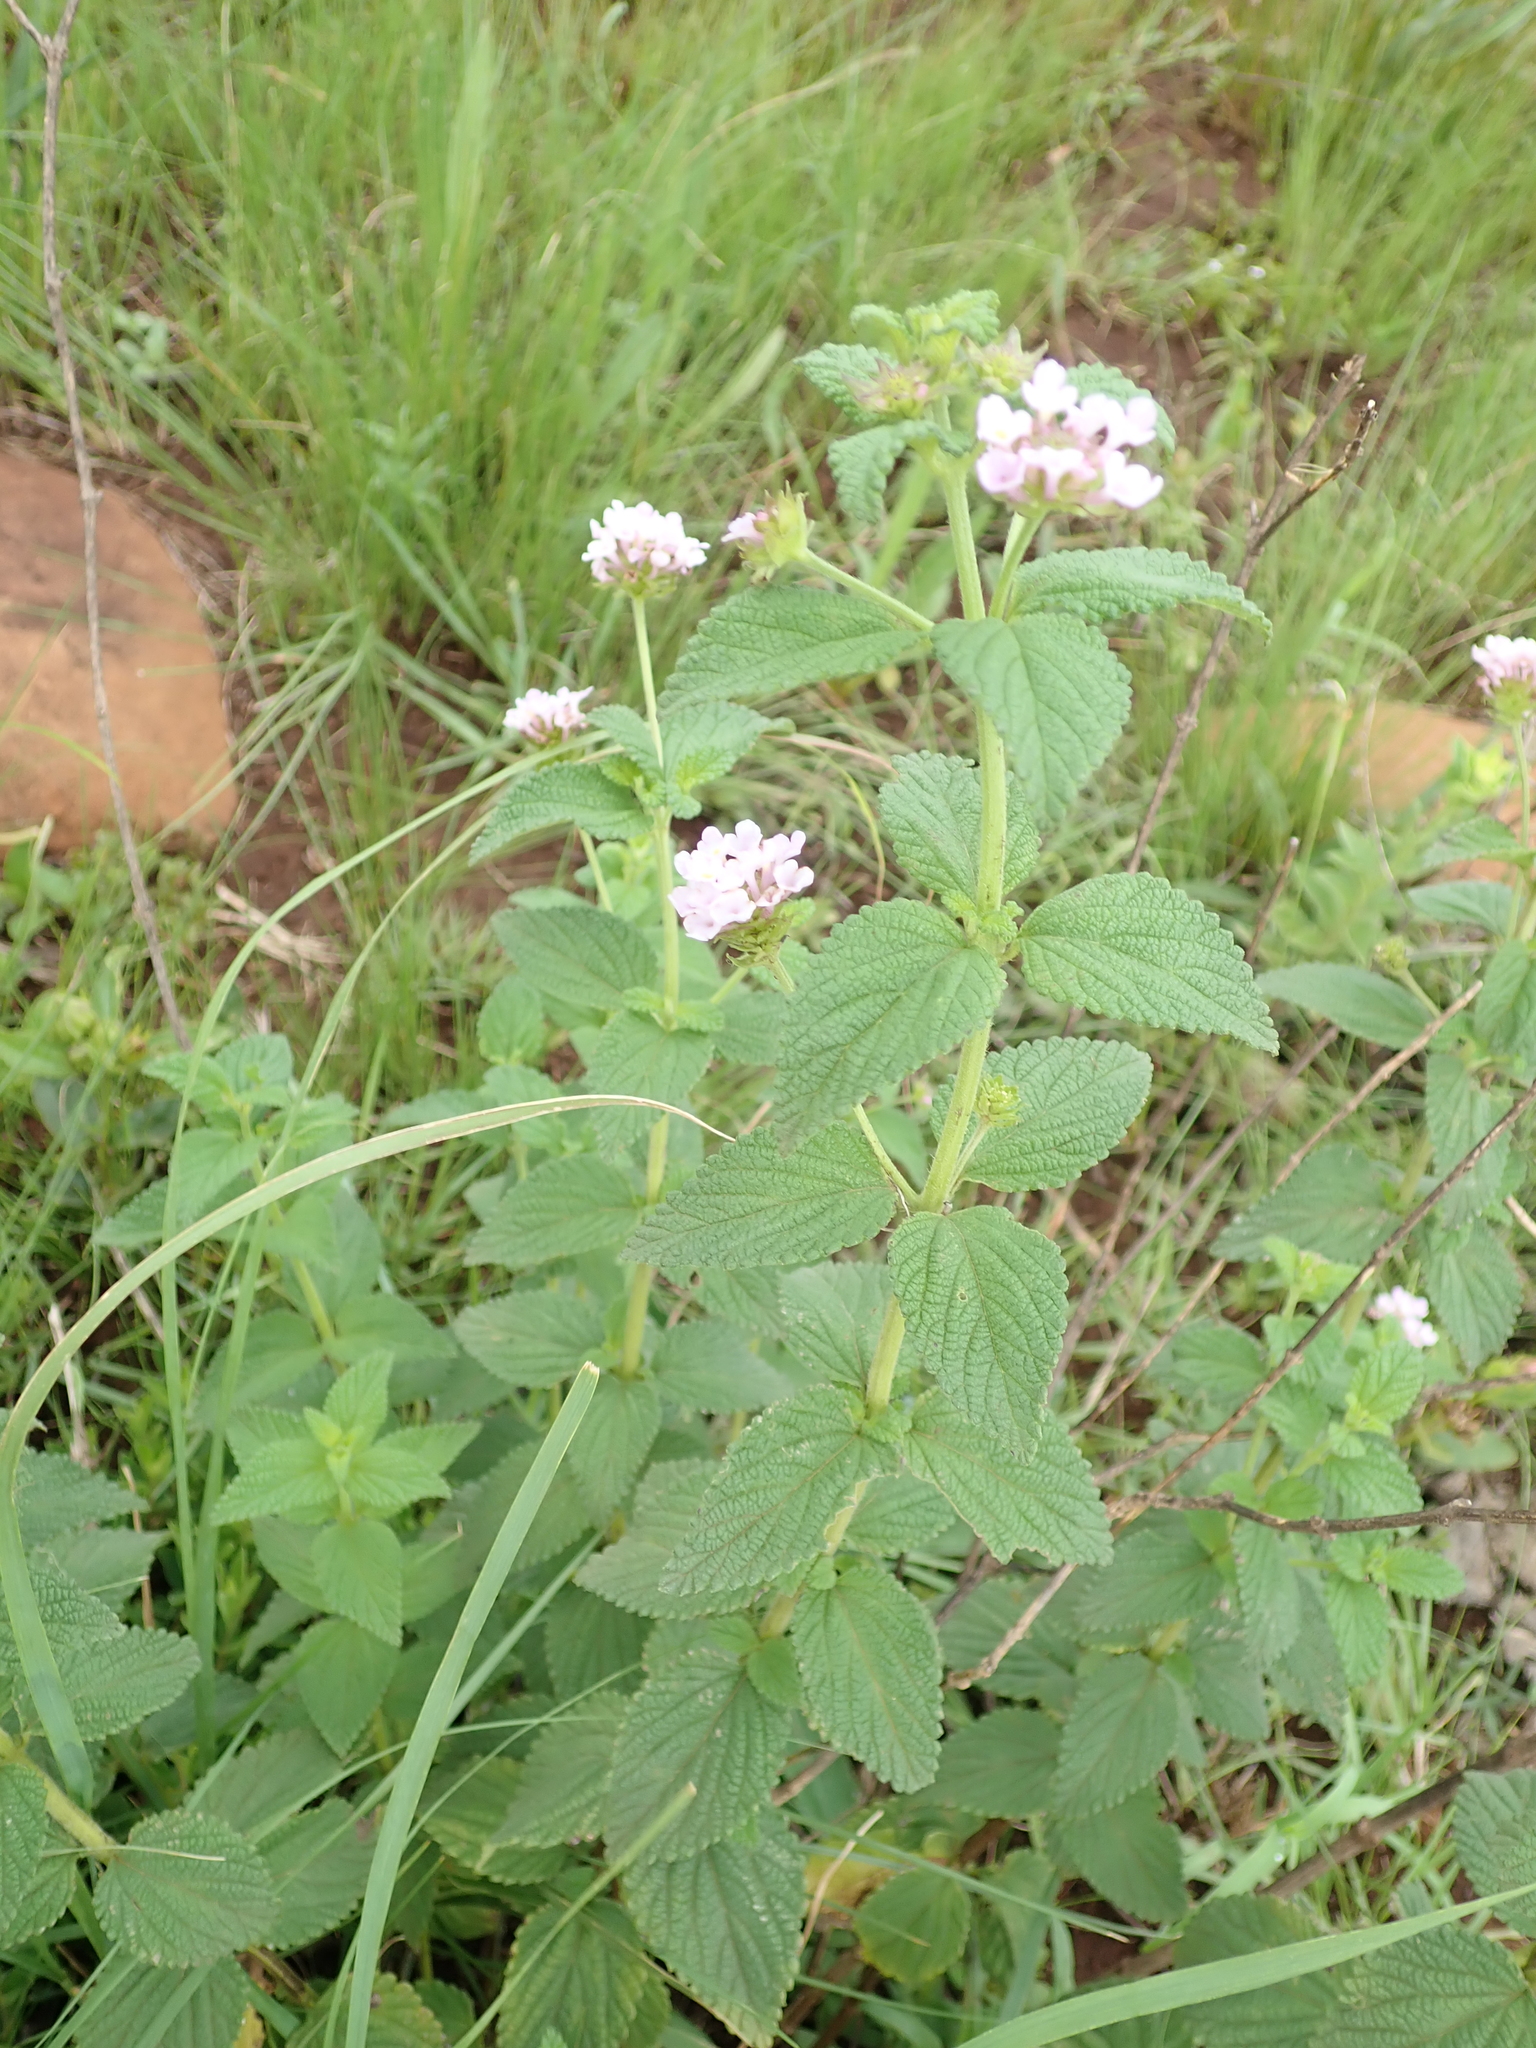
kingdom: Plantae
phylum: Tracheophyta
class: Magnoliopsida
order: Lamiales
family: Verbenaceae
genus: Lantana
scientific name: Lantana rugosa
